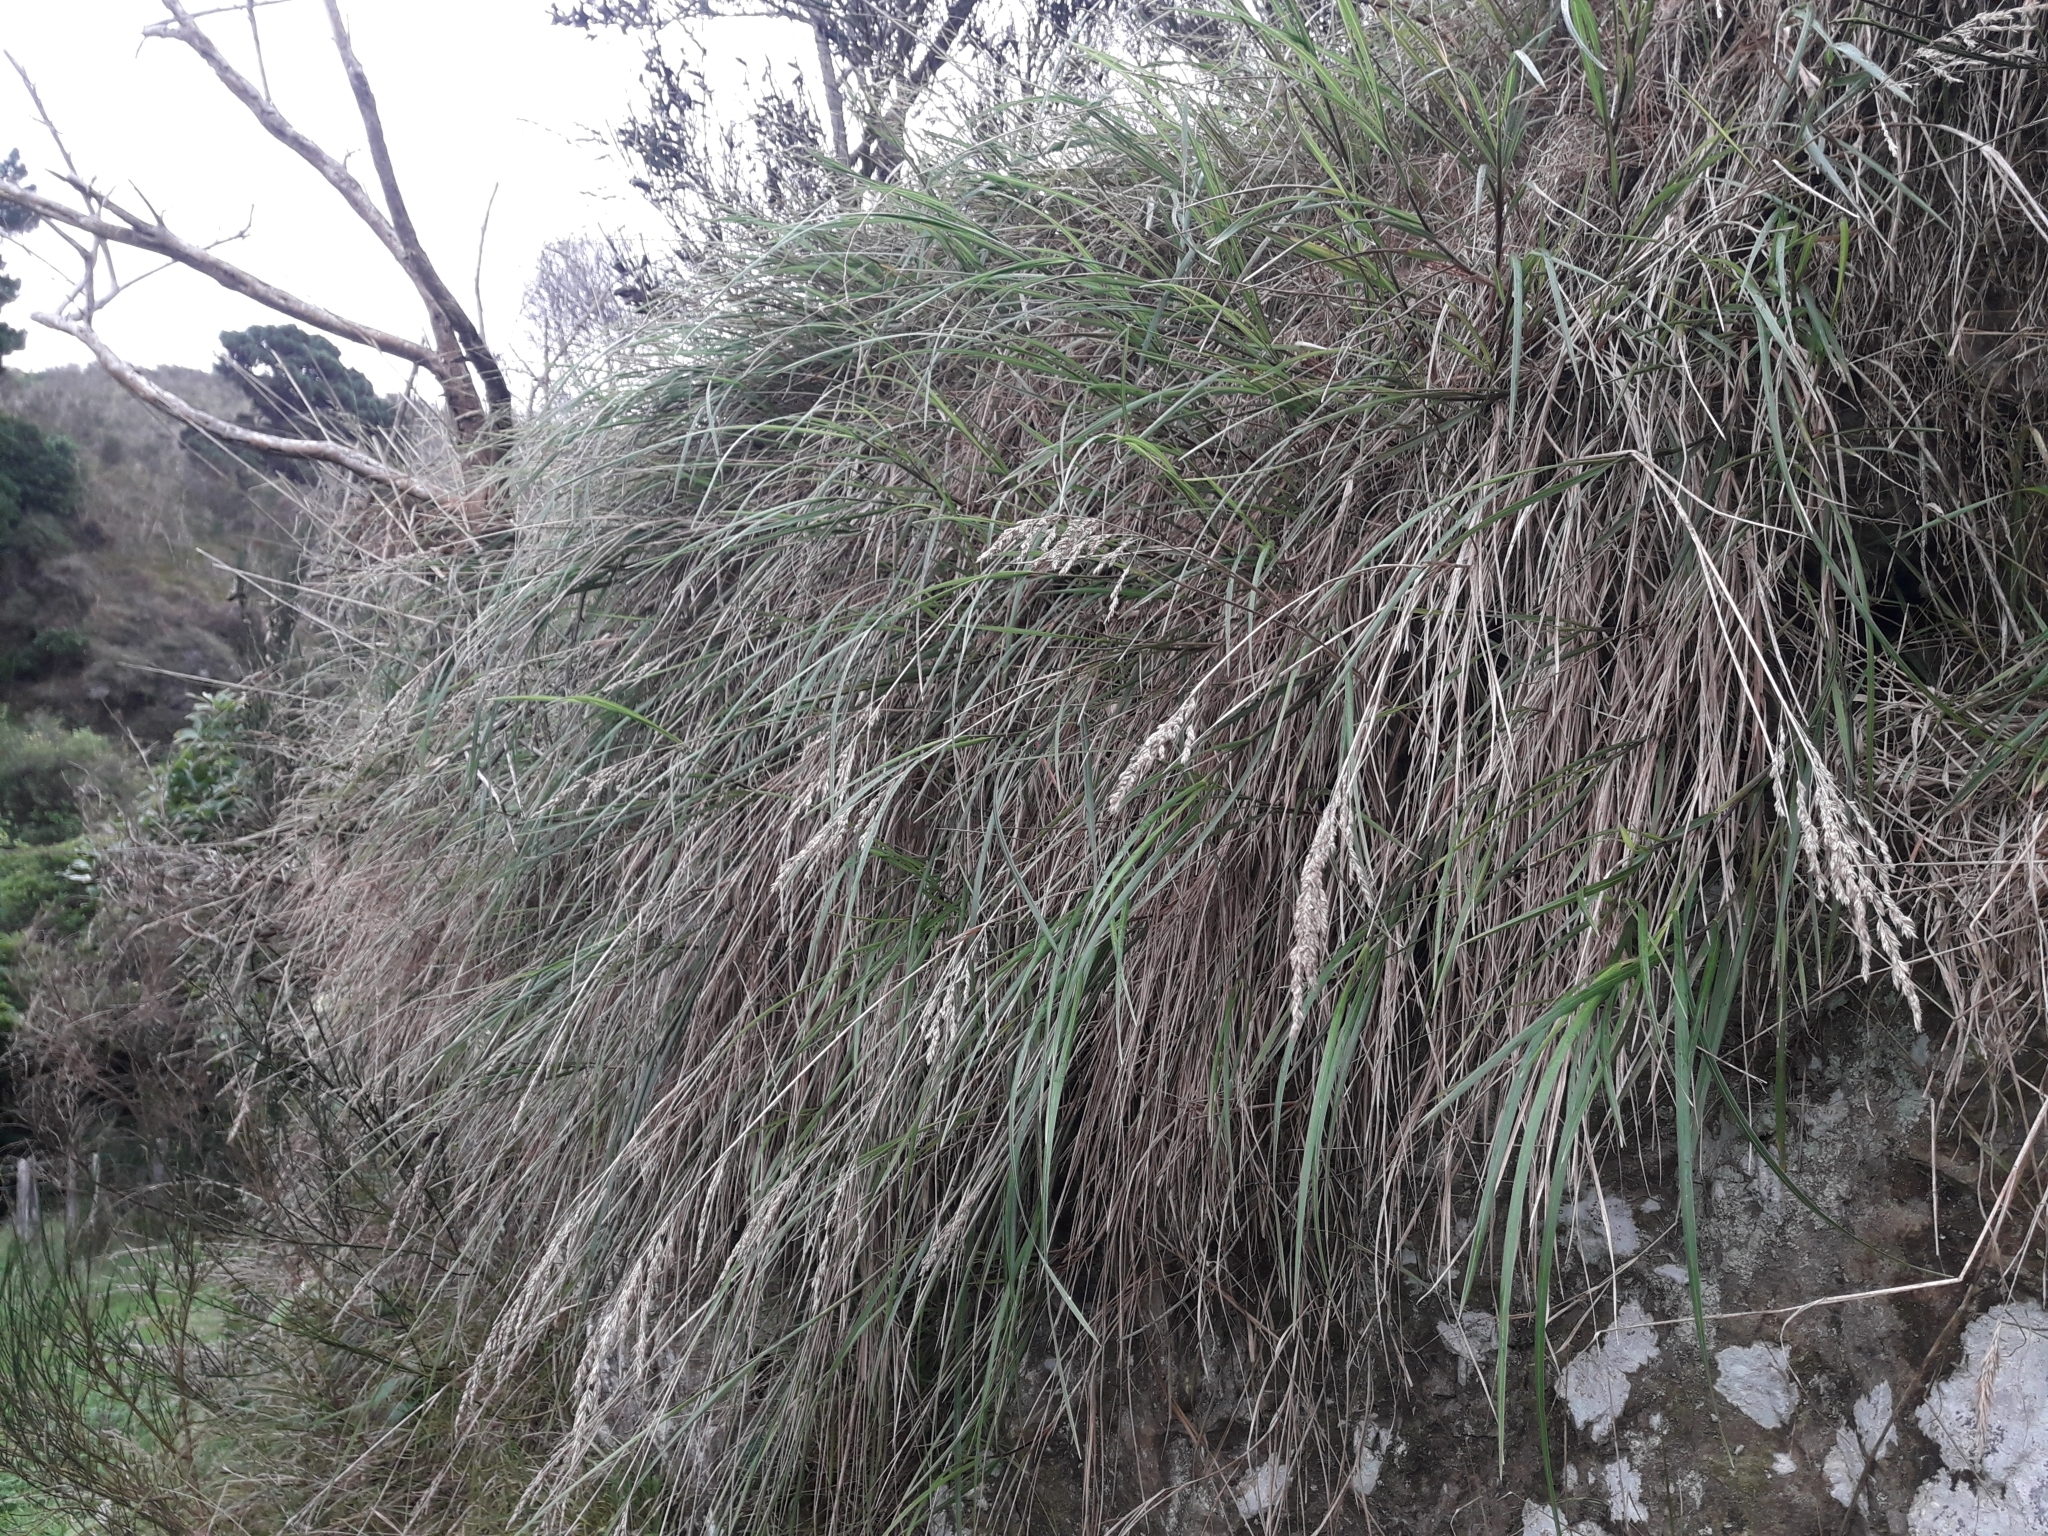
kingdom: Plantae
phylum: Tracheophyta
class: Liliopsida
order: Poales
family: Poaceae
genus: Poa
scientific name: Poa anceps
